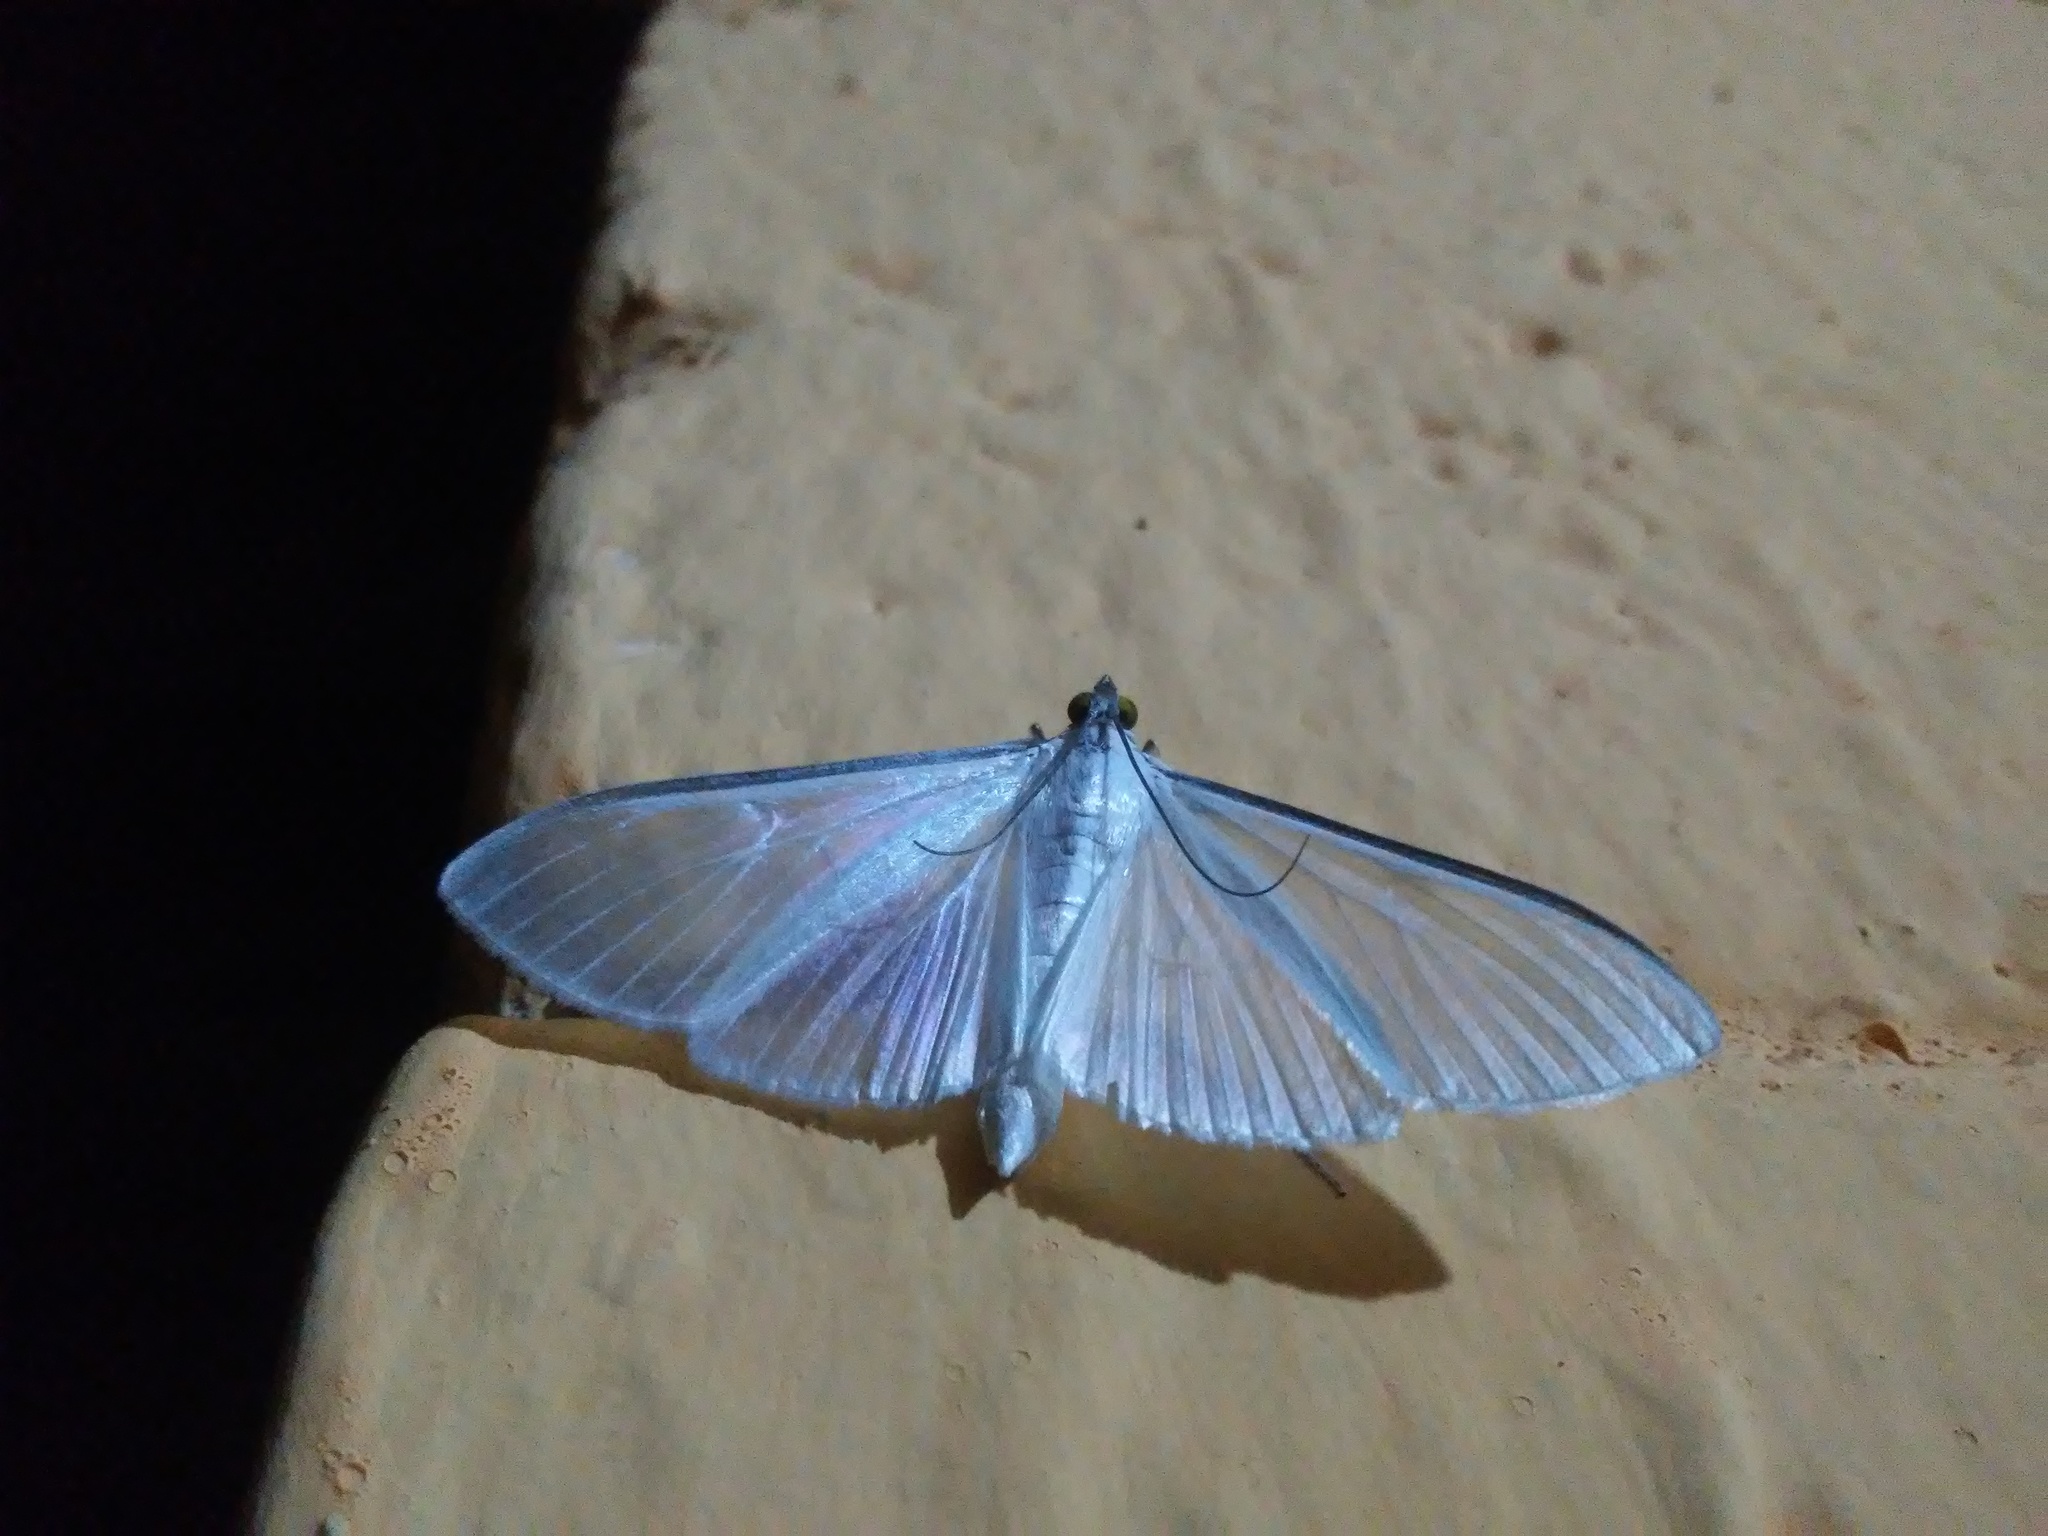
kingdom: Animalia
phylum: Arthropoda
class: Insecta
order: Lepidoptera
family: Crambidae
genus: Palpita
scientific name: Palpita flegia
